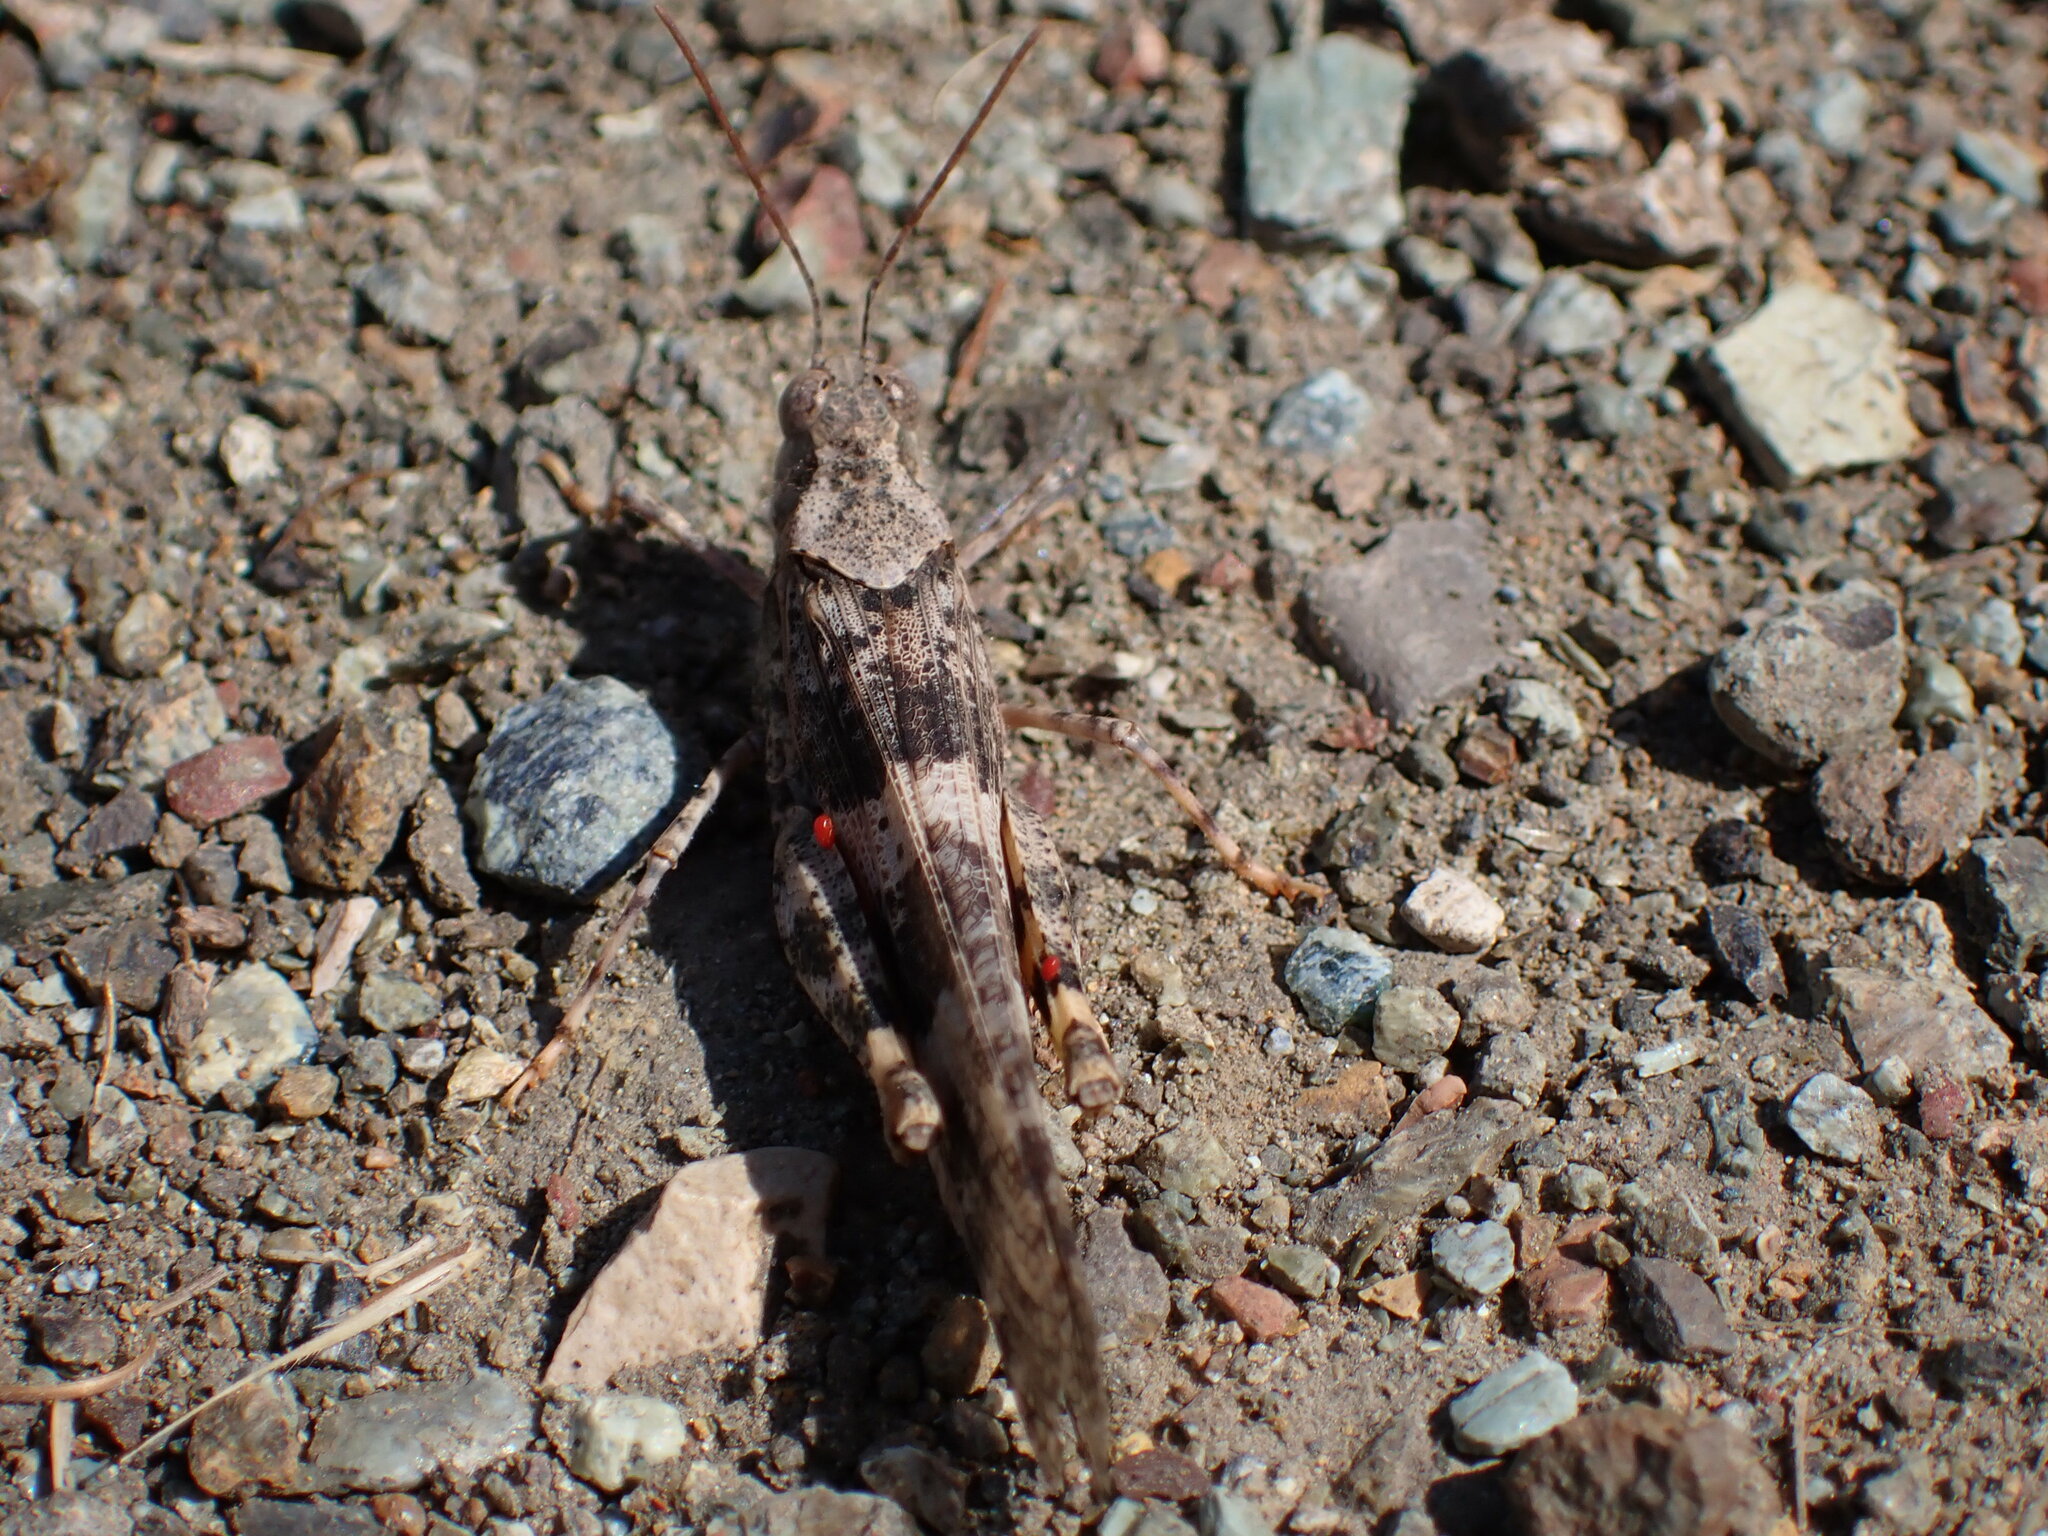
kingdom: Animalia
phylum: Arthropoda
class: Insecta
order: Orthoptera
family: Acrididae
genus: Trimerotropis
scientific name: Trimerotropis pallidipennis
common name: Pallid-winged grasshopper
